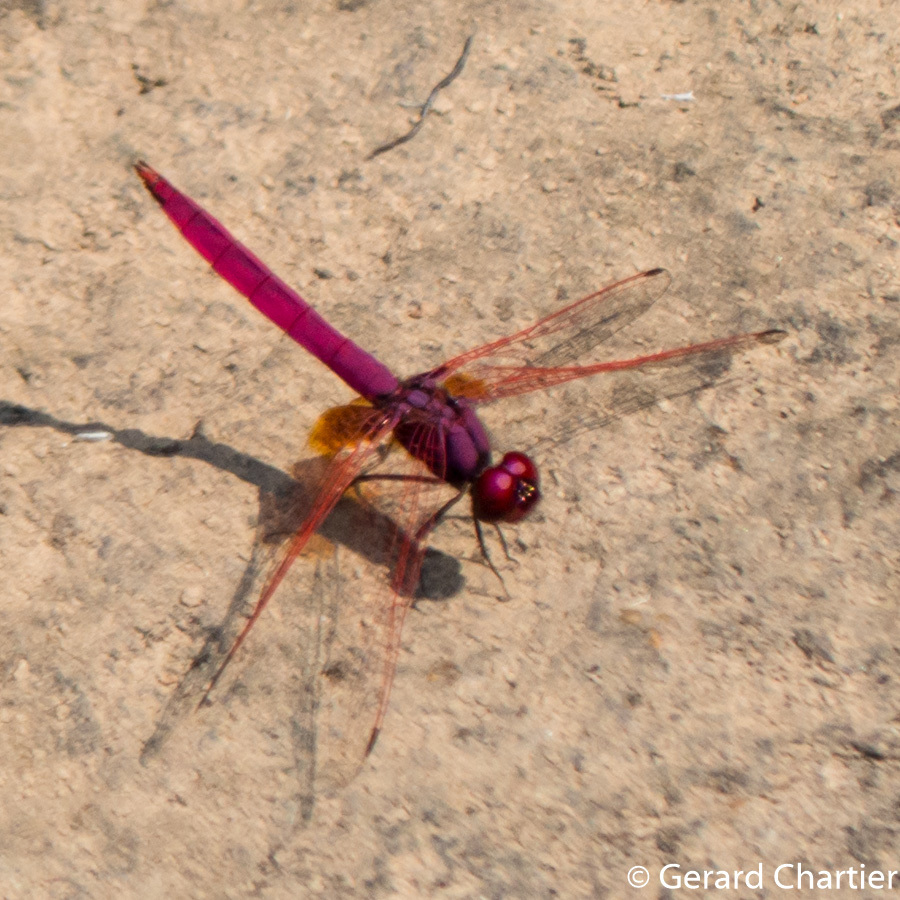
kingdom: Animalia
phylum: Arthropoda
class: Insecta
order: Odonata
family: Libellulidae
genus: Trithemis
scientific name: Trithemis aurora
